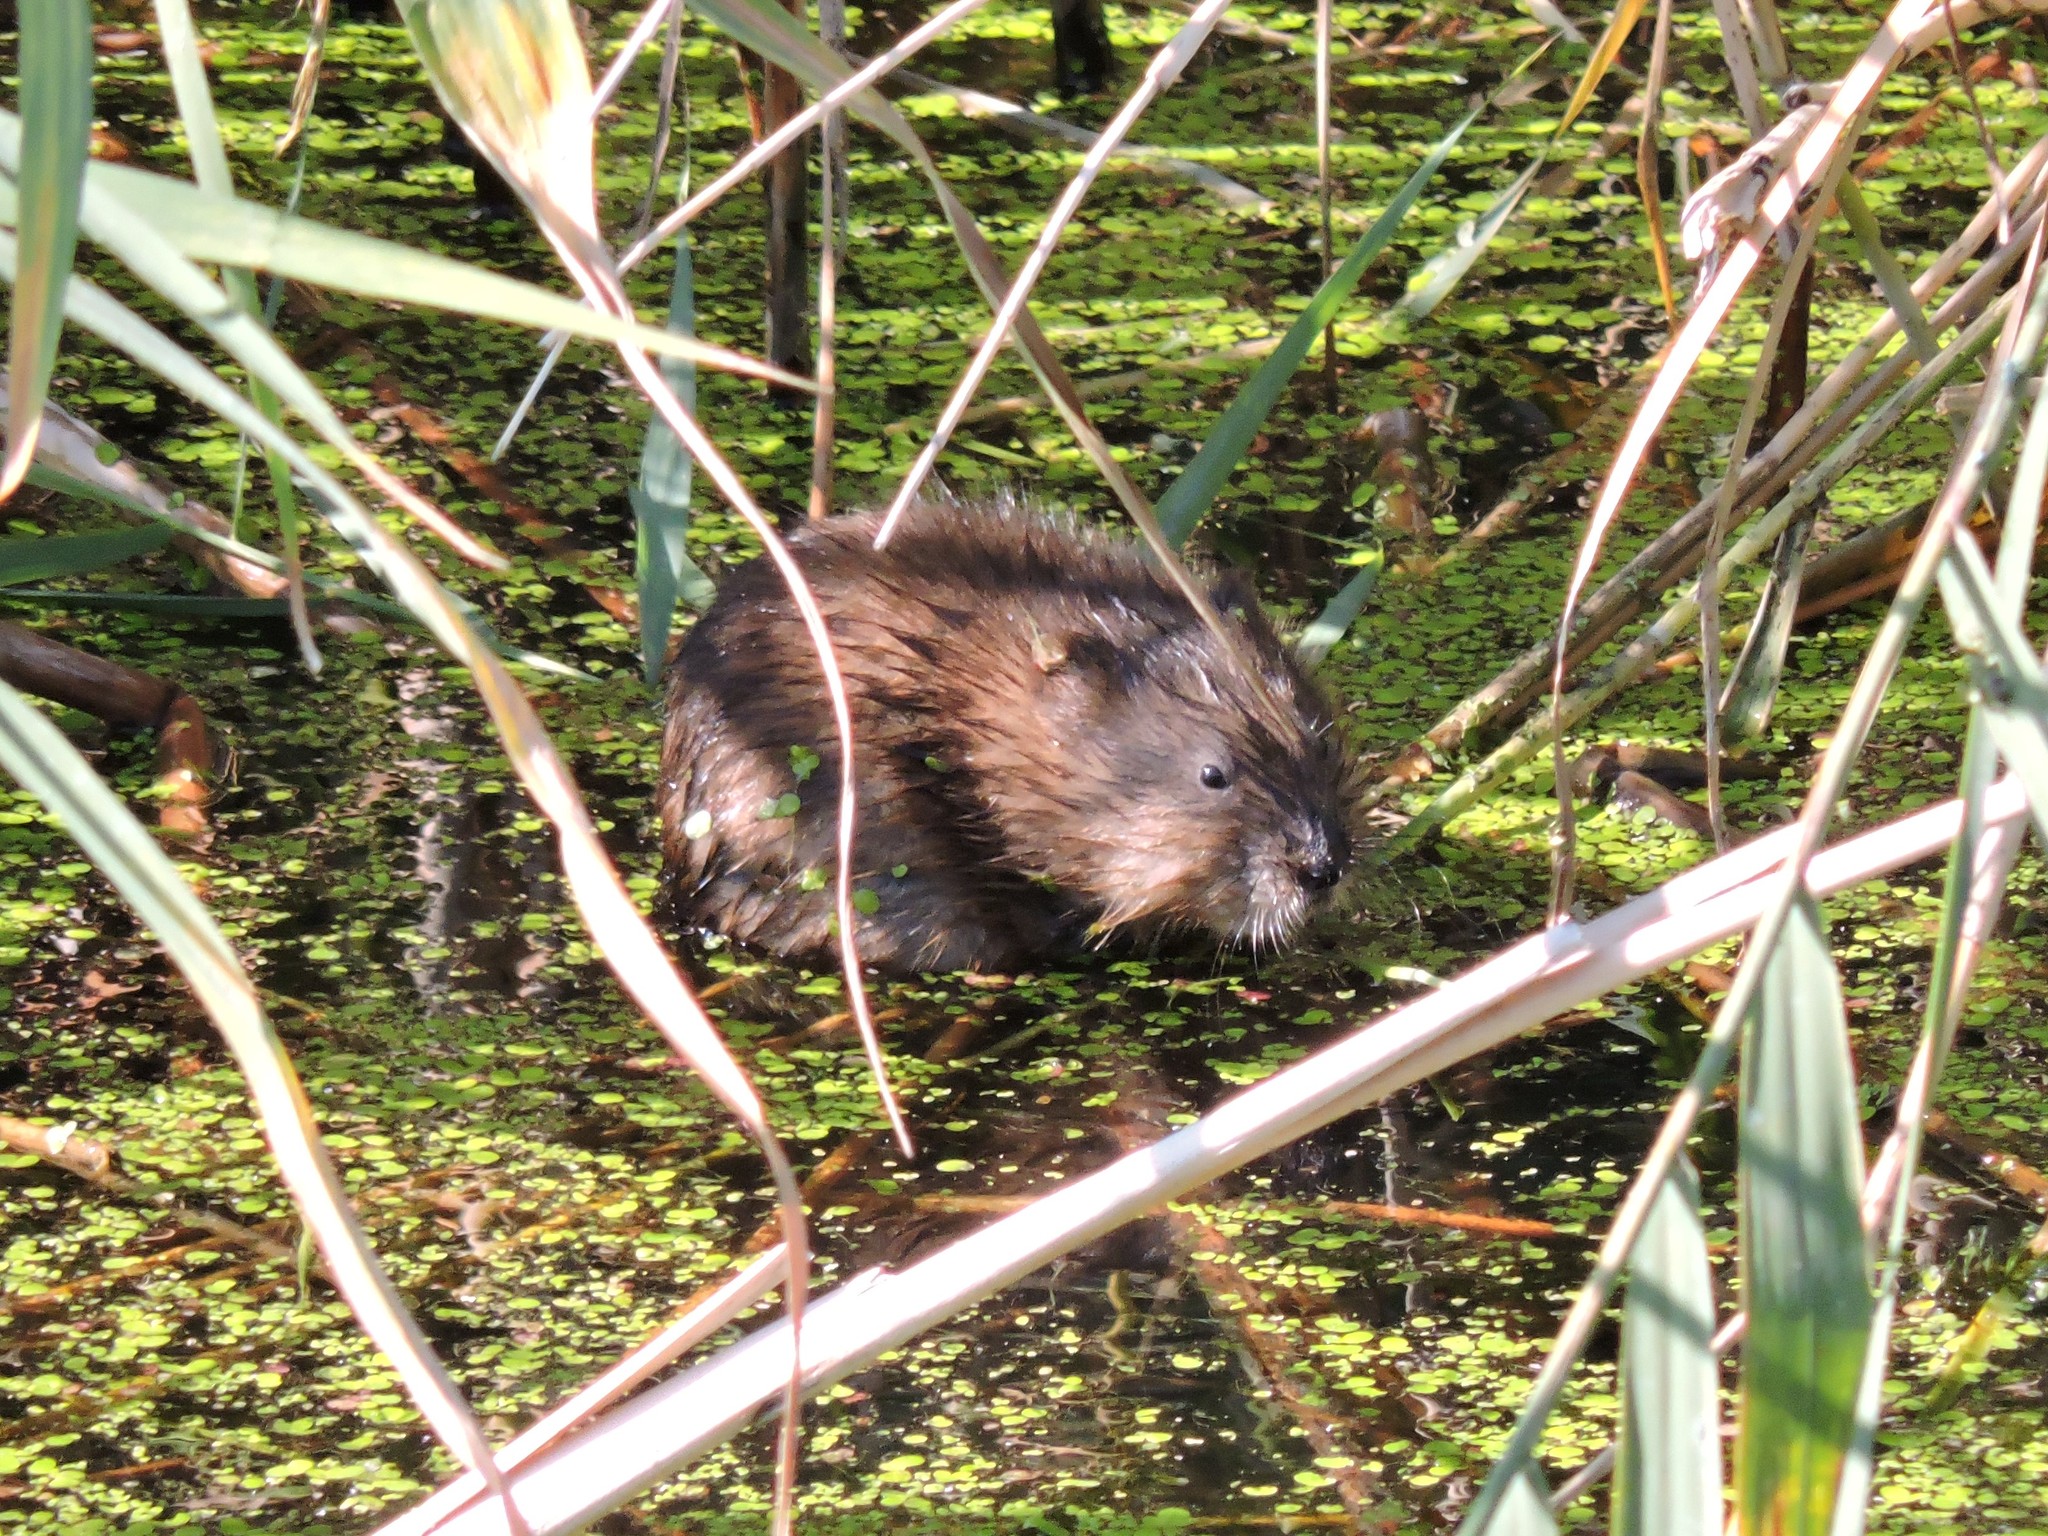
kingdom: Animalia
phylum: Chordata
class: Mammalia
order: Rodentia
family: Cricetidae
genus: Ondatra
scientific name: Ondatra zibethicus
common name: Muskrat
